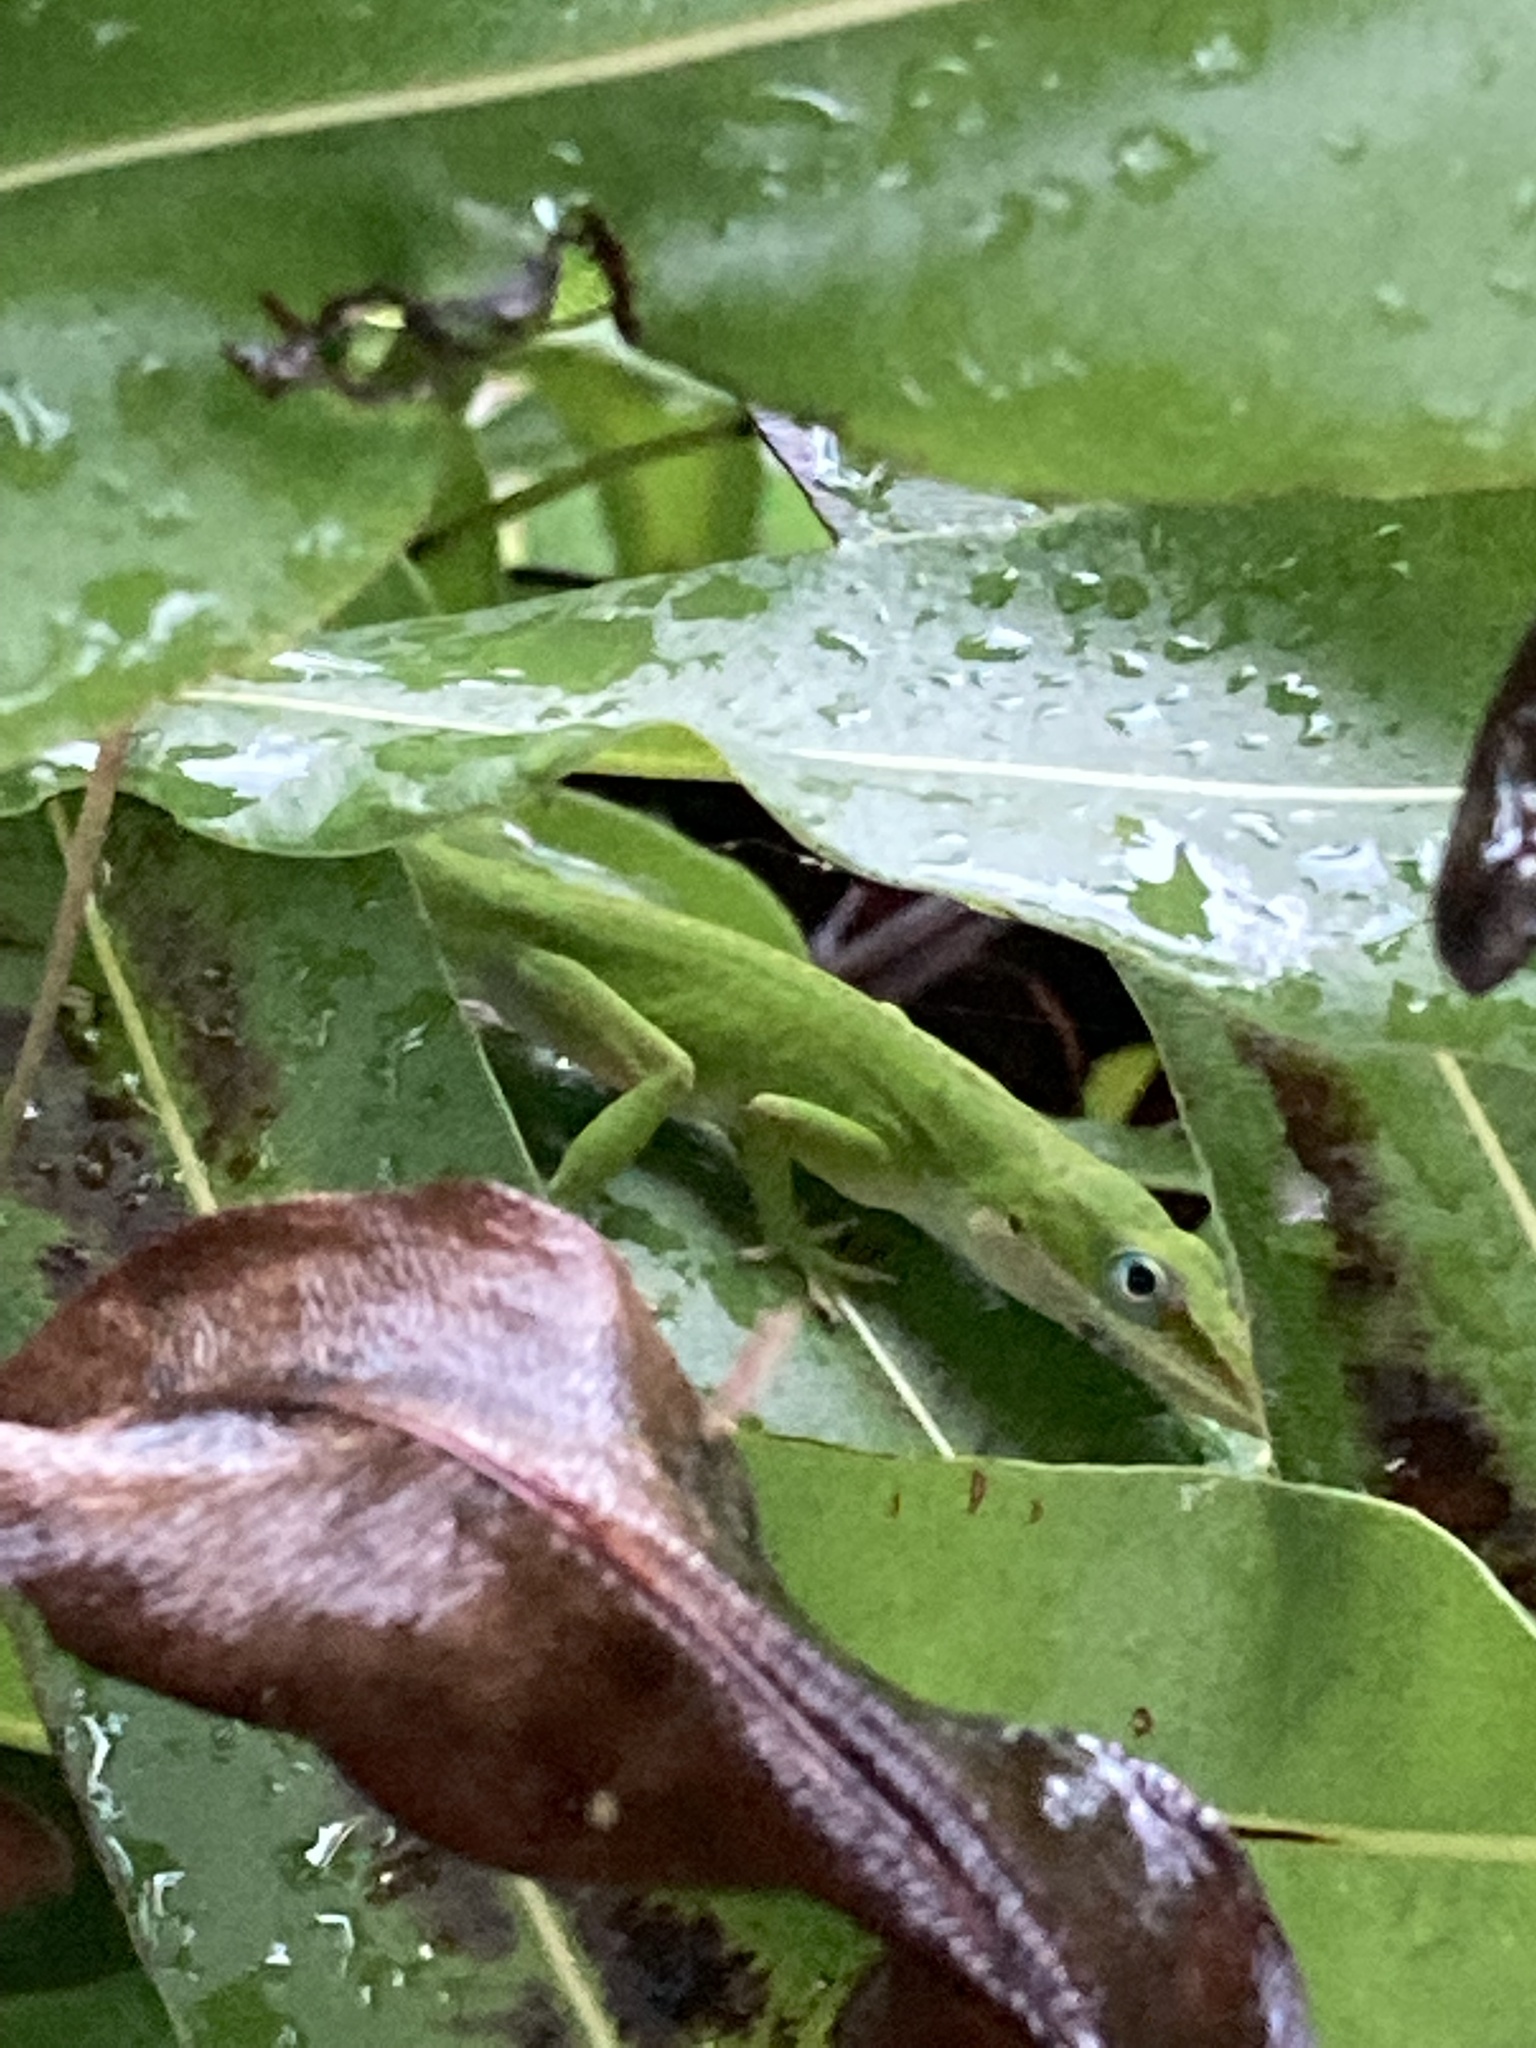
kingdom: Animalia
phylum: Chordata
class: Squamata
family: Dactyloidae
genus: Anolis
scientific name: Anolis carolinensis
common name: Green anole
